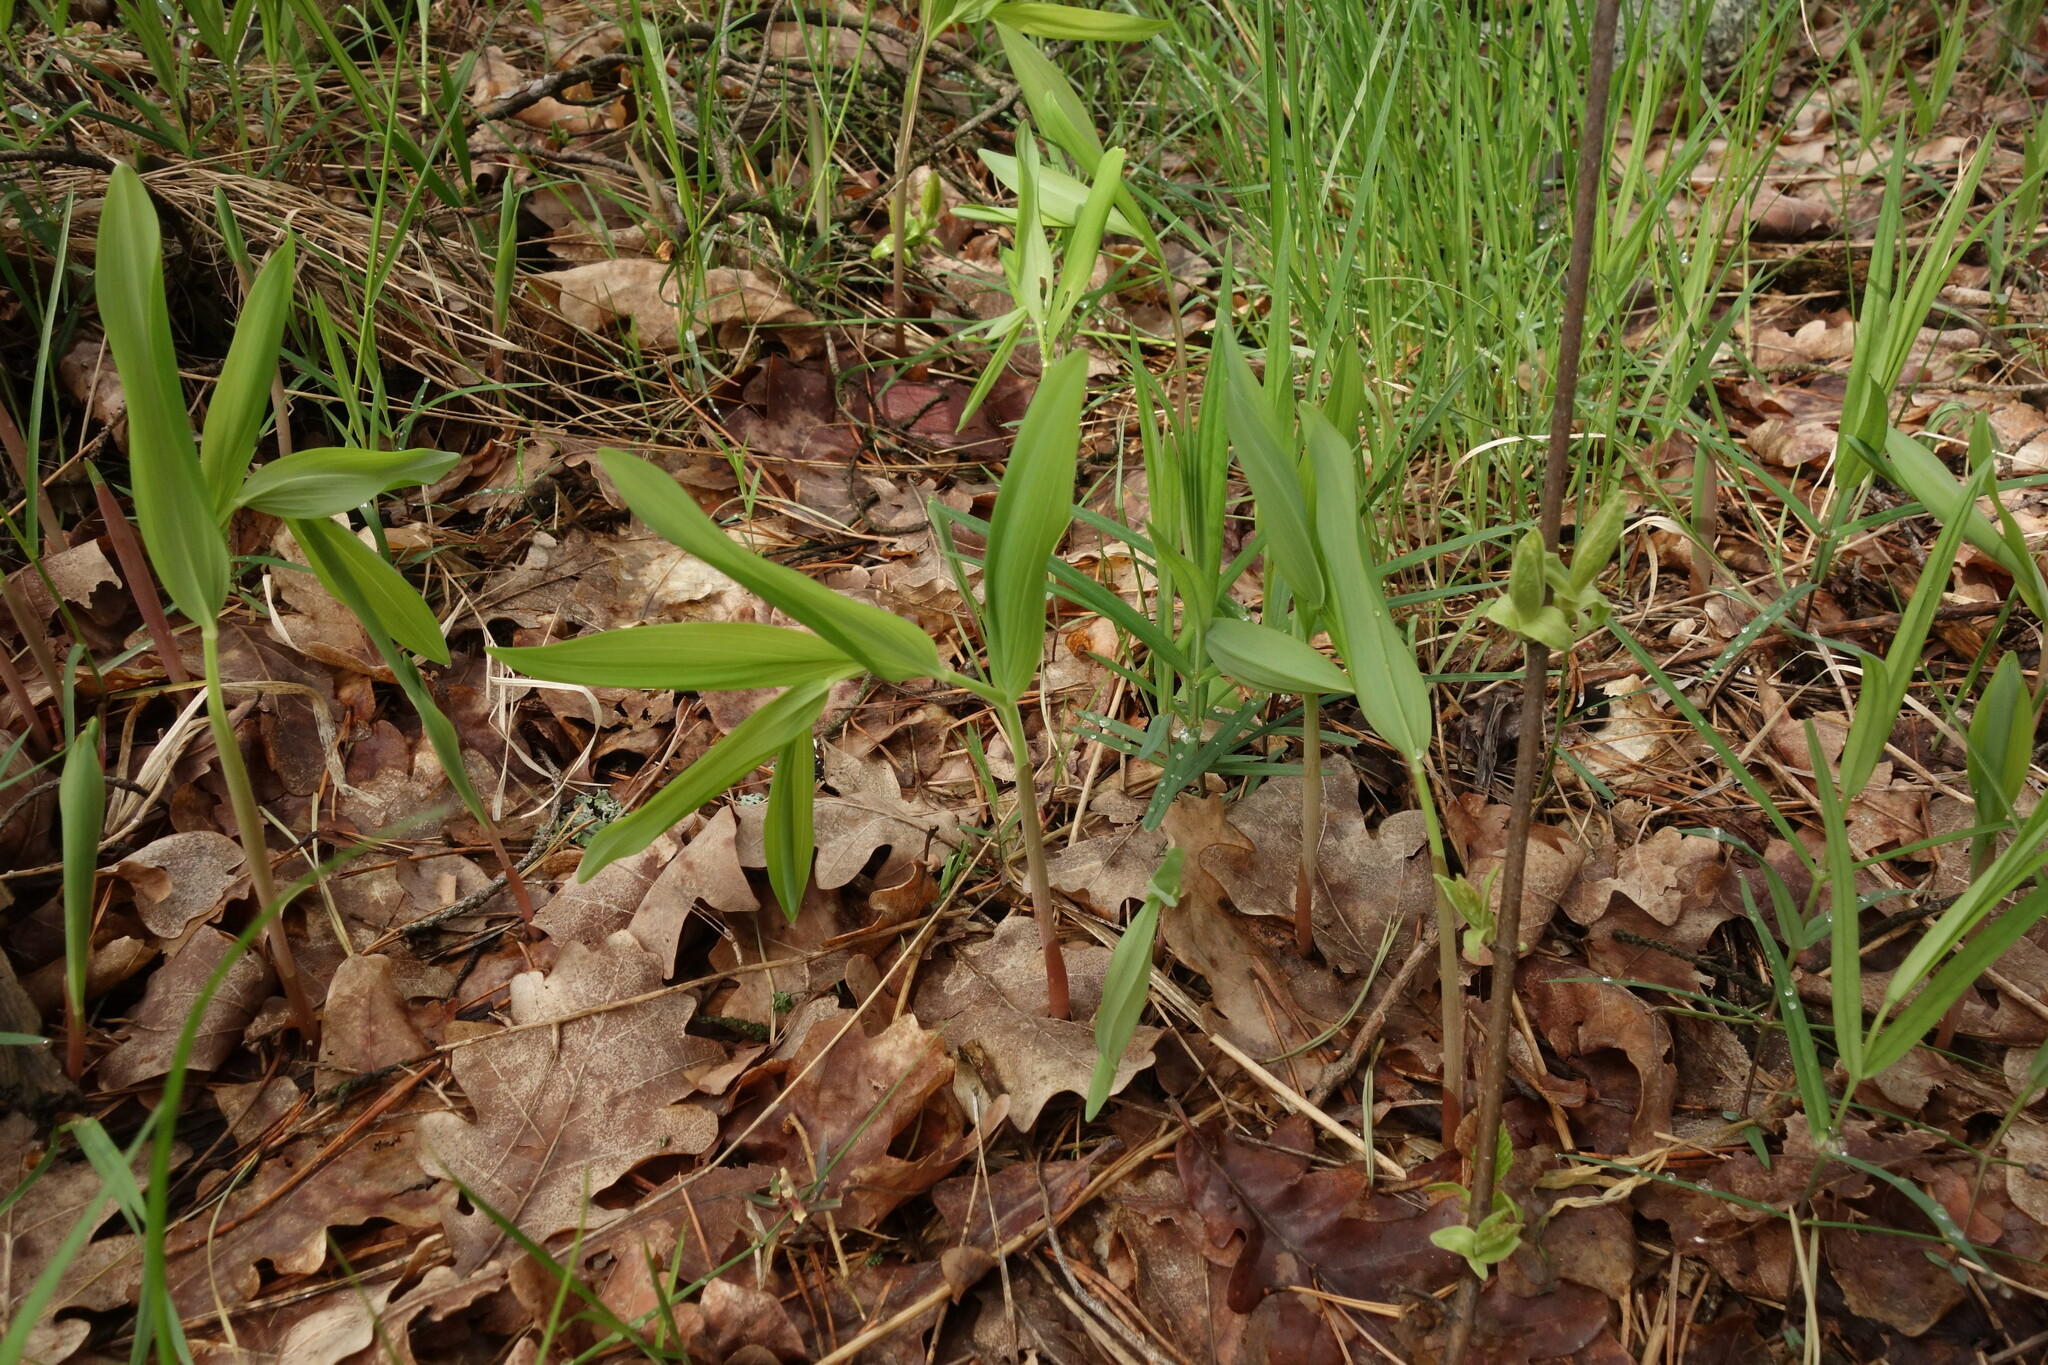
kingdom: Plantae
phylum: Tracheophyta
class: Liliopsida
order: Asparagales
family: Asparagaceae
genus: Polygonatum
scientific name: Polygonatum odoratum
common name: Angular solomon's-seal
